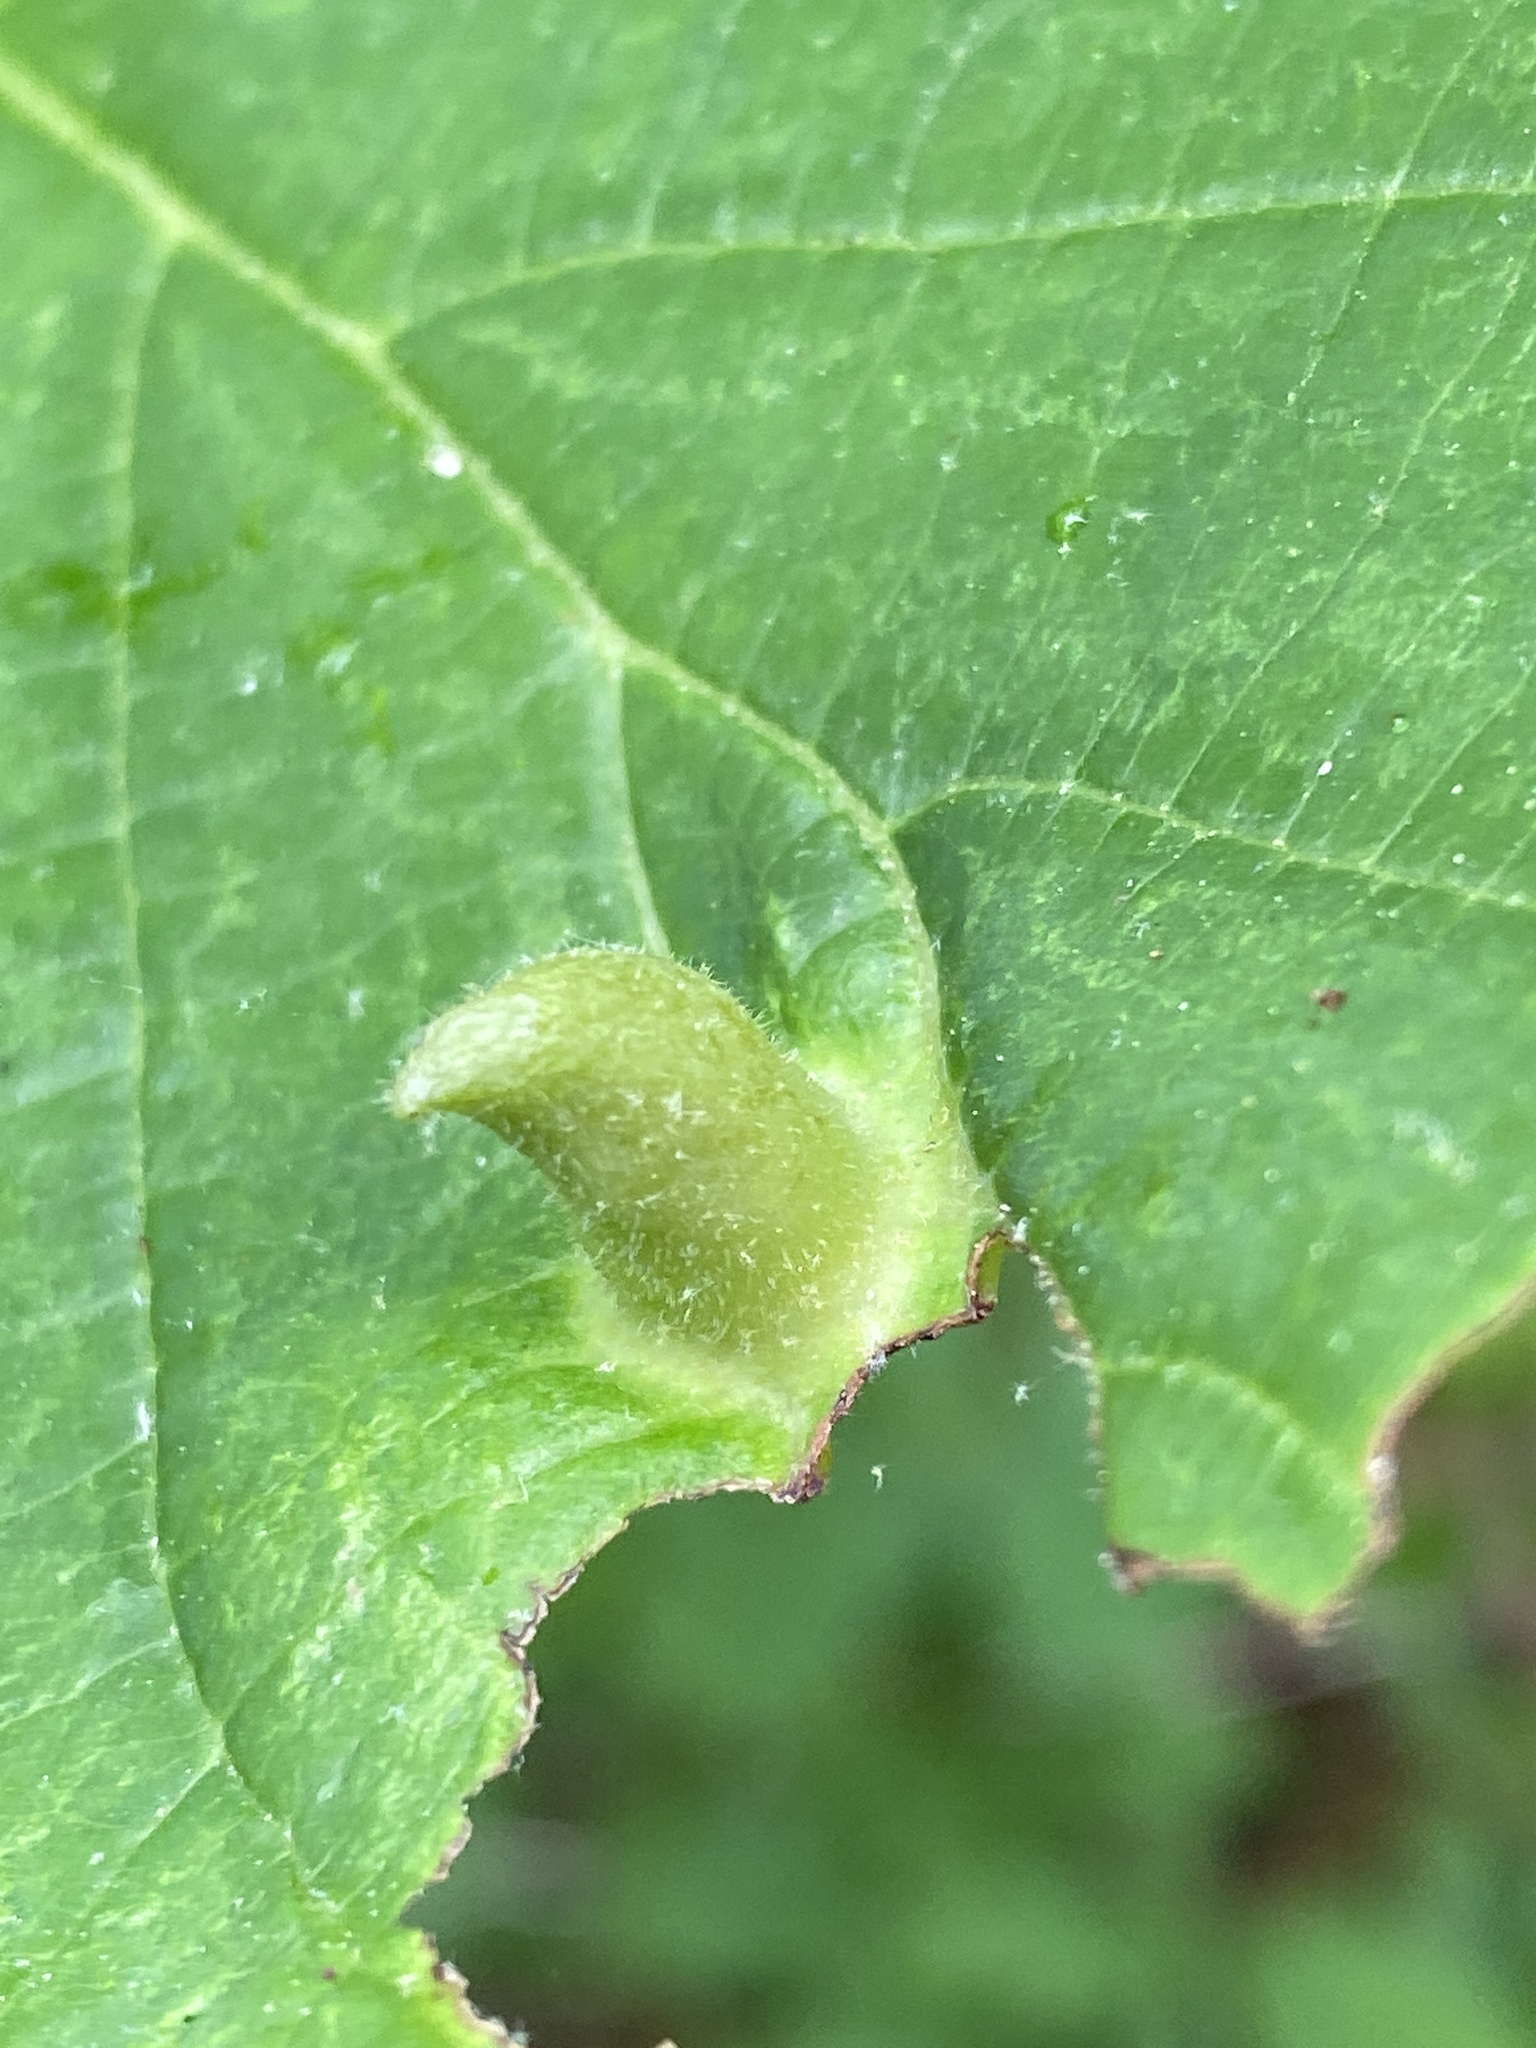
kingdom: Animalia
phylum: Arthropoda
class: Insecta
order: Hemiptera
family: Aphididae
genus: Hormaphis
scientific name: Hormaphis hamamelidis
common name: Witch-hazel cone gall aphid
